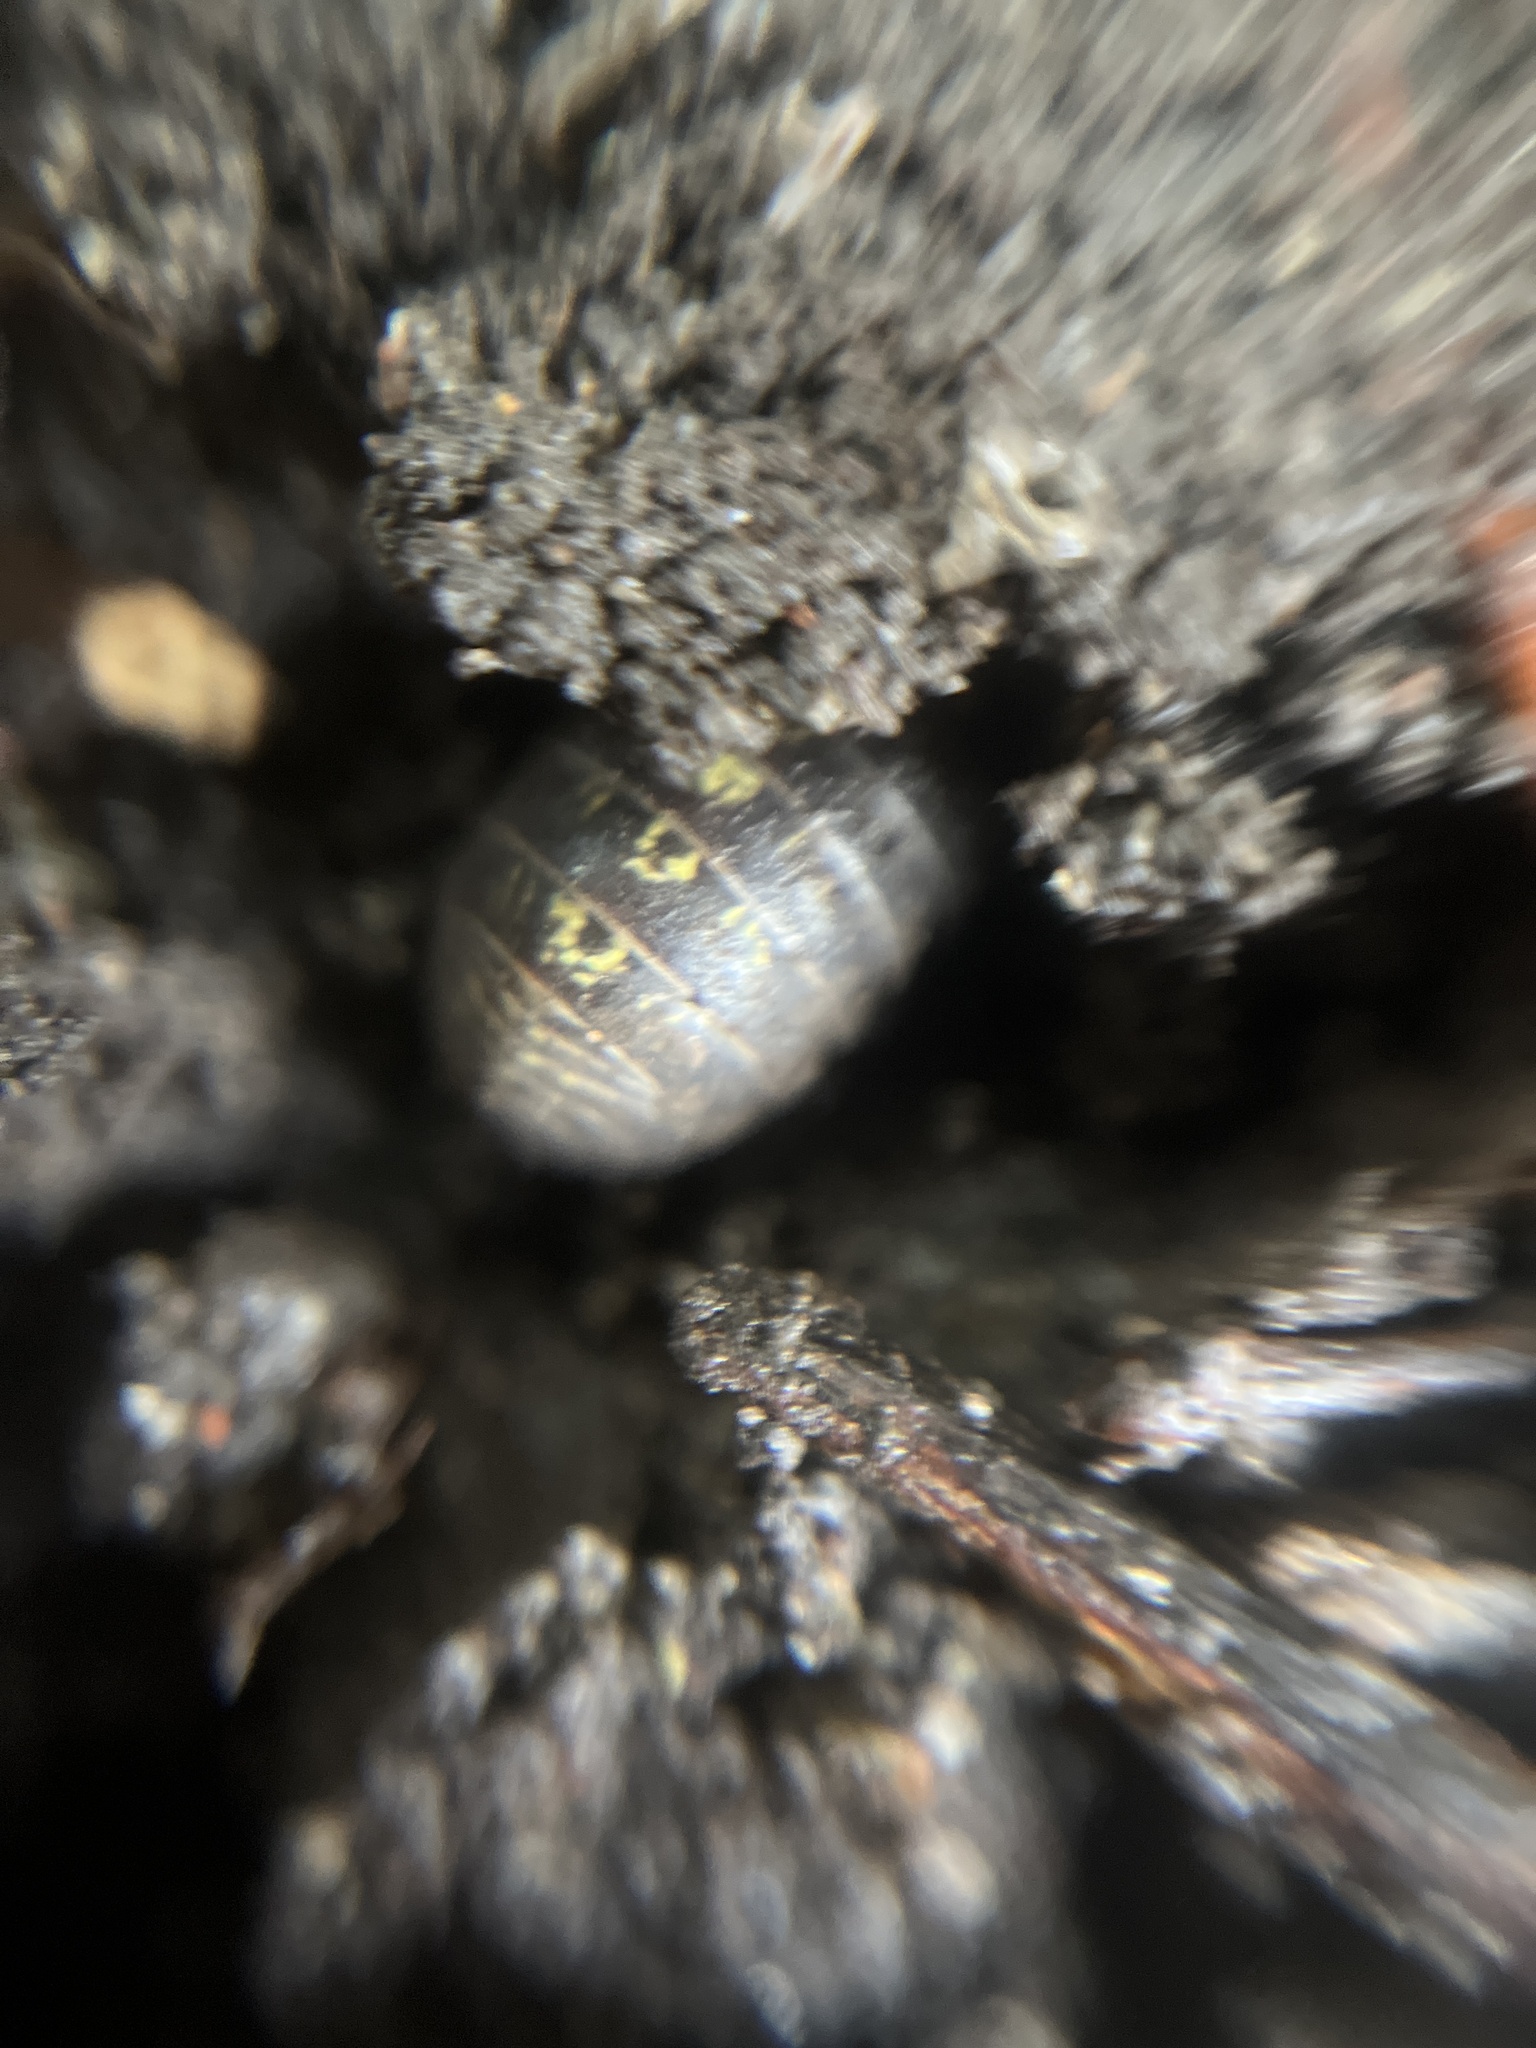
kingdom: Animalia
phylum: Arthropoda
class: Malacostraca
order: Isopoda
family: Armadillidiidae
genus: Armadillidium
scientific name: Armadillidium vulgare
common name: Common pill woodlouse
